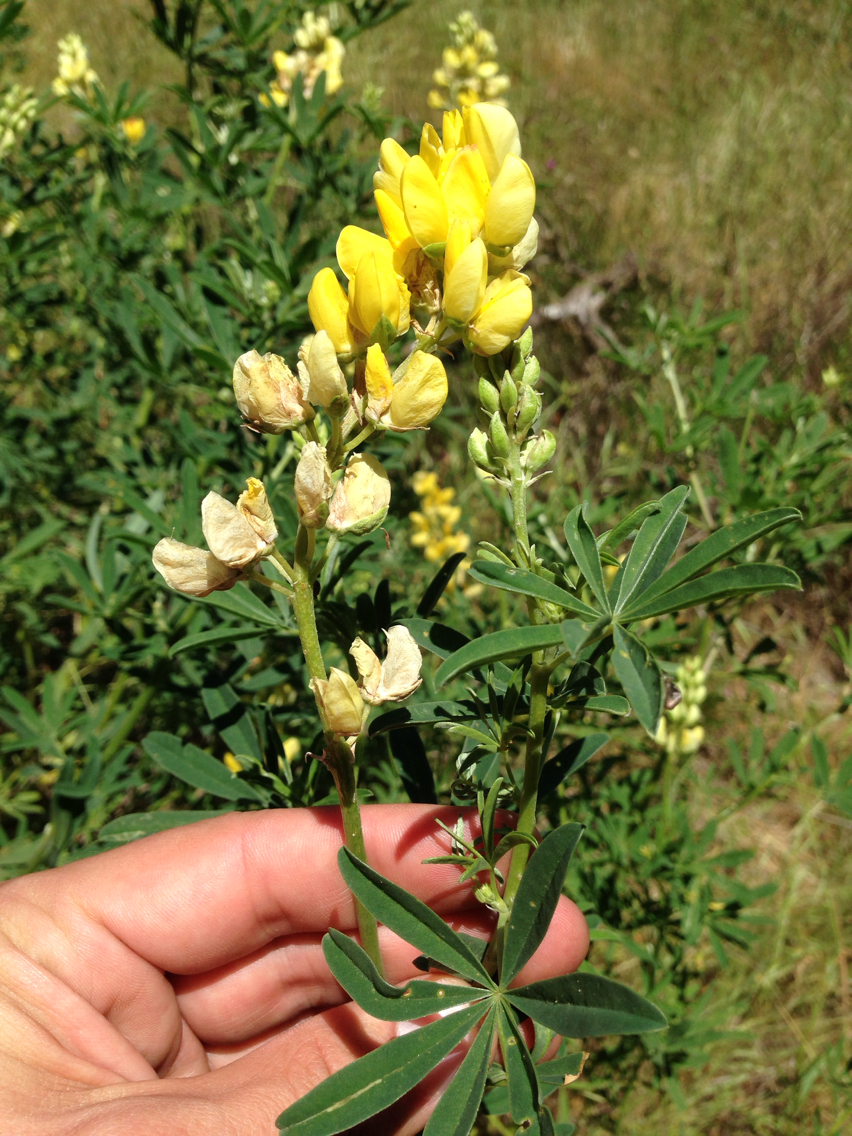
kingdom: Plantae
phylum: Tracheophyta
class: Magnoliopsida
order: Fabales
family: Fabaceae
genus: Lupinus
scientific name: Lupinus arboreus
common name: Yellow bush lupine
